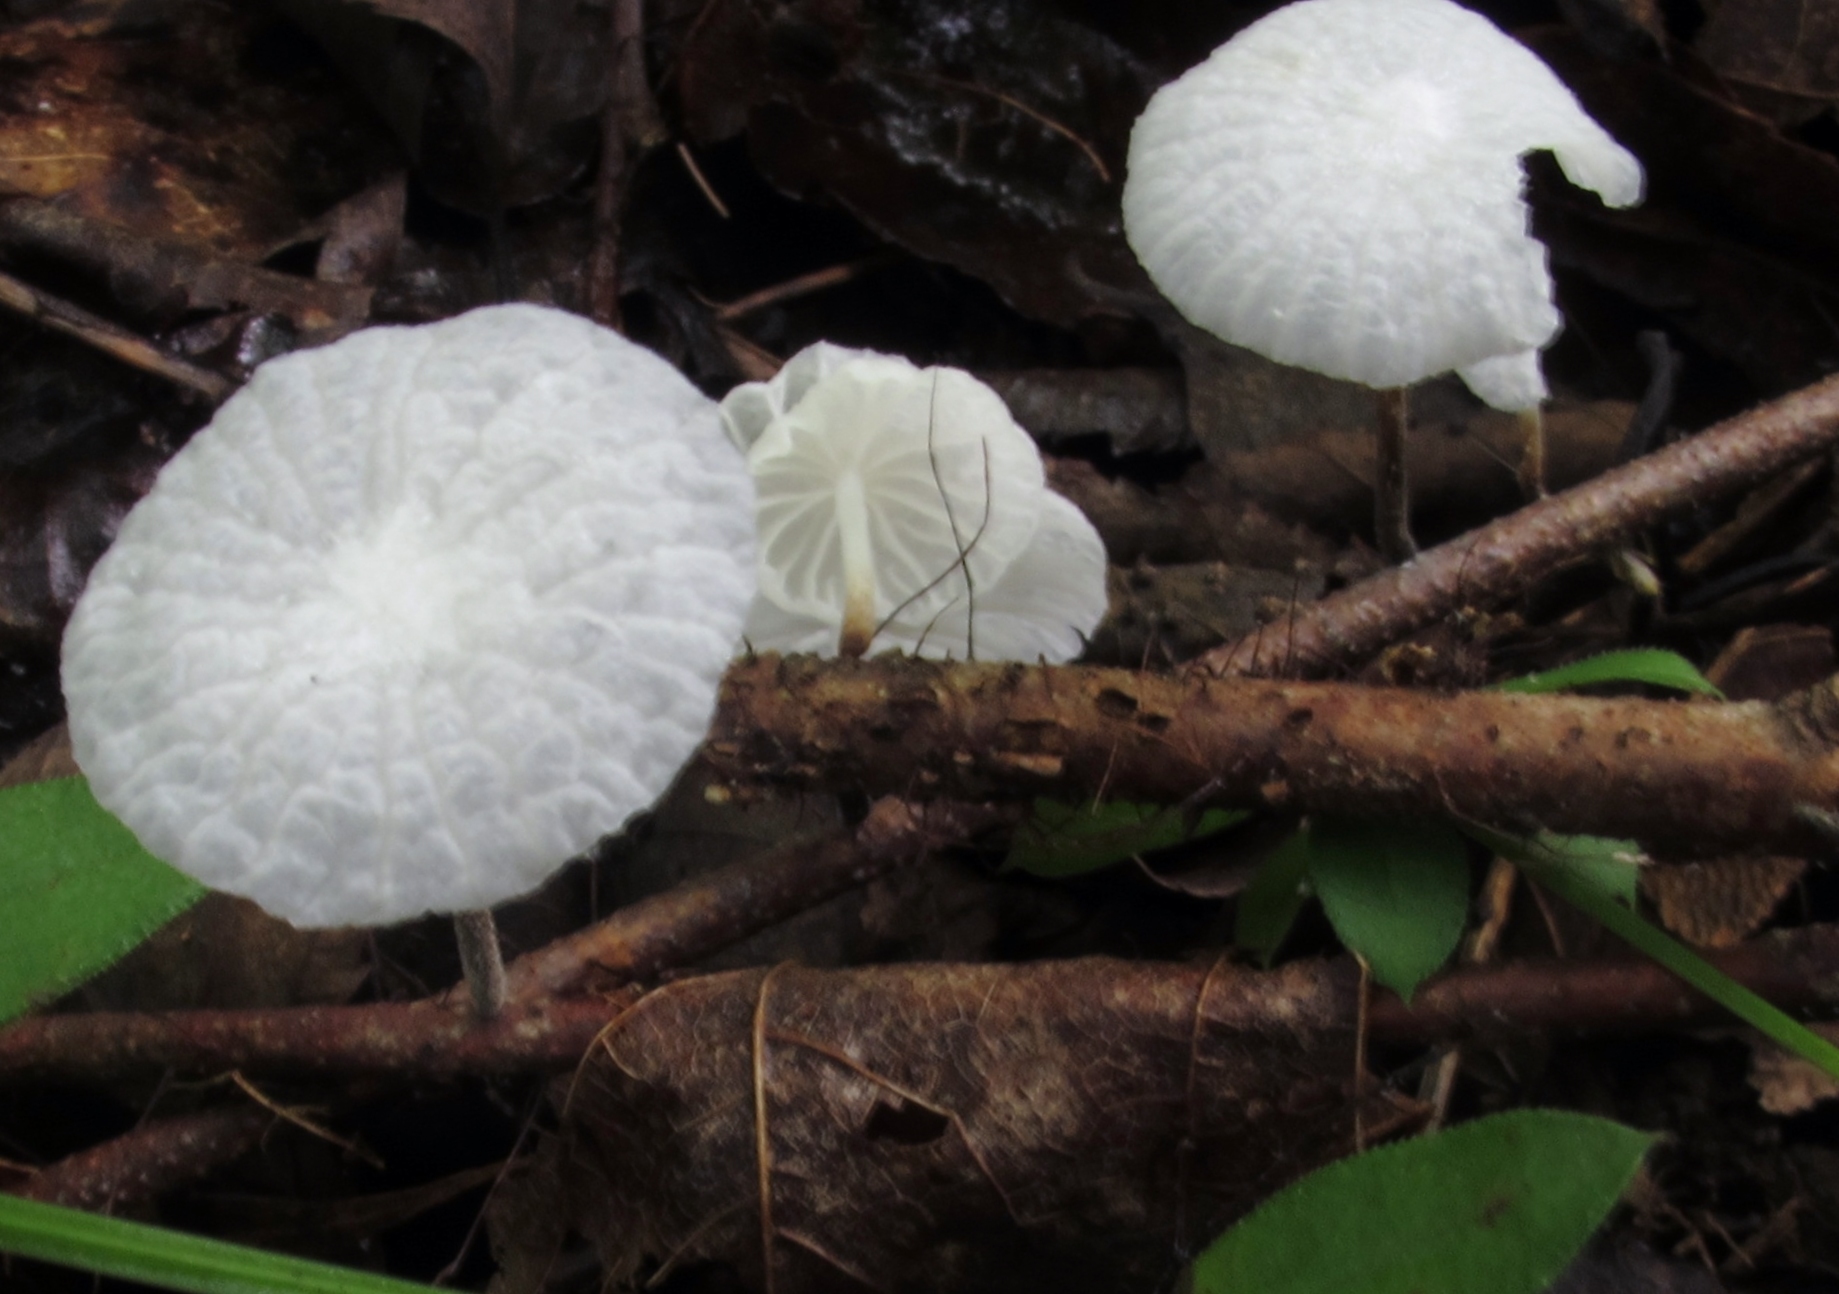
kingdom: Fungi
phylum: Basidiomycota
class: Agaricomycetes
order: Agaricales
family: Omphalotaceae
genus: Mycetinis
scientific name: Mycetinis opacus
